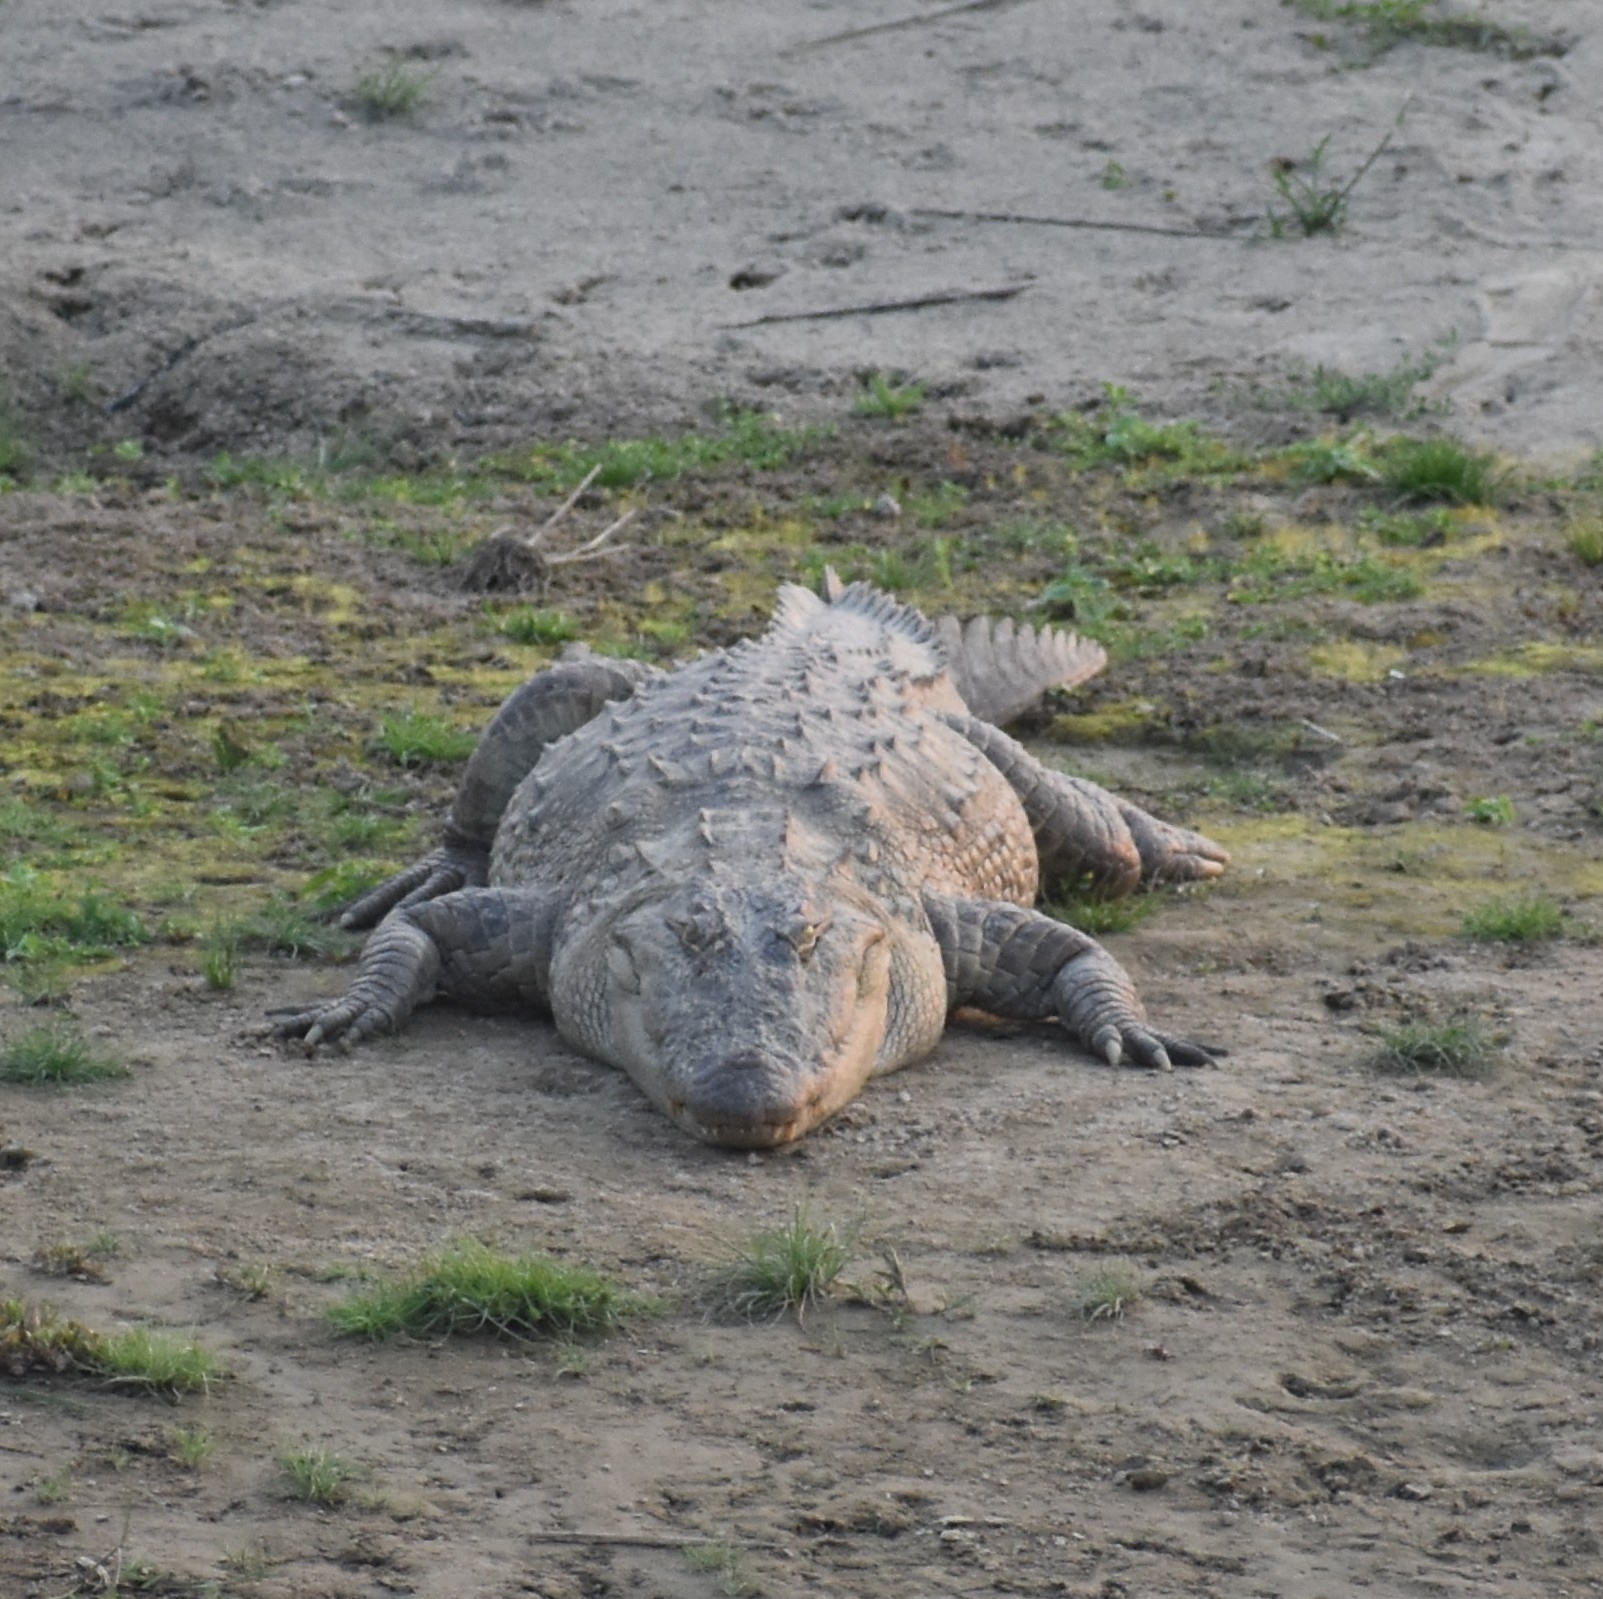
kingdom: Animalia
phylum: Chordata
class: Crocodylia
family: Crocodylidae
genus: Crocodylus
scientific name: Crocodylus palustris
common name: Mugger crocodile
